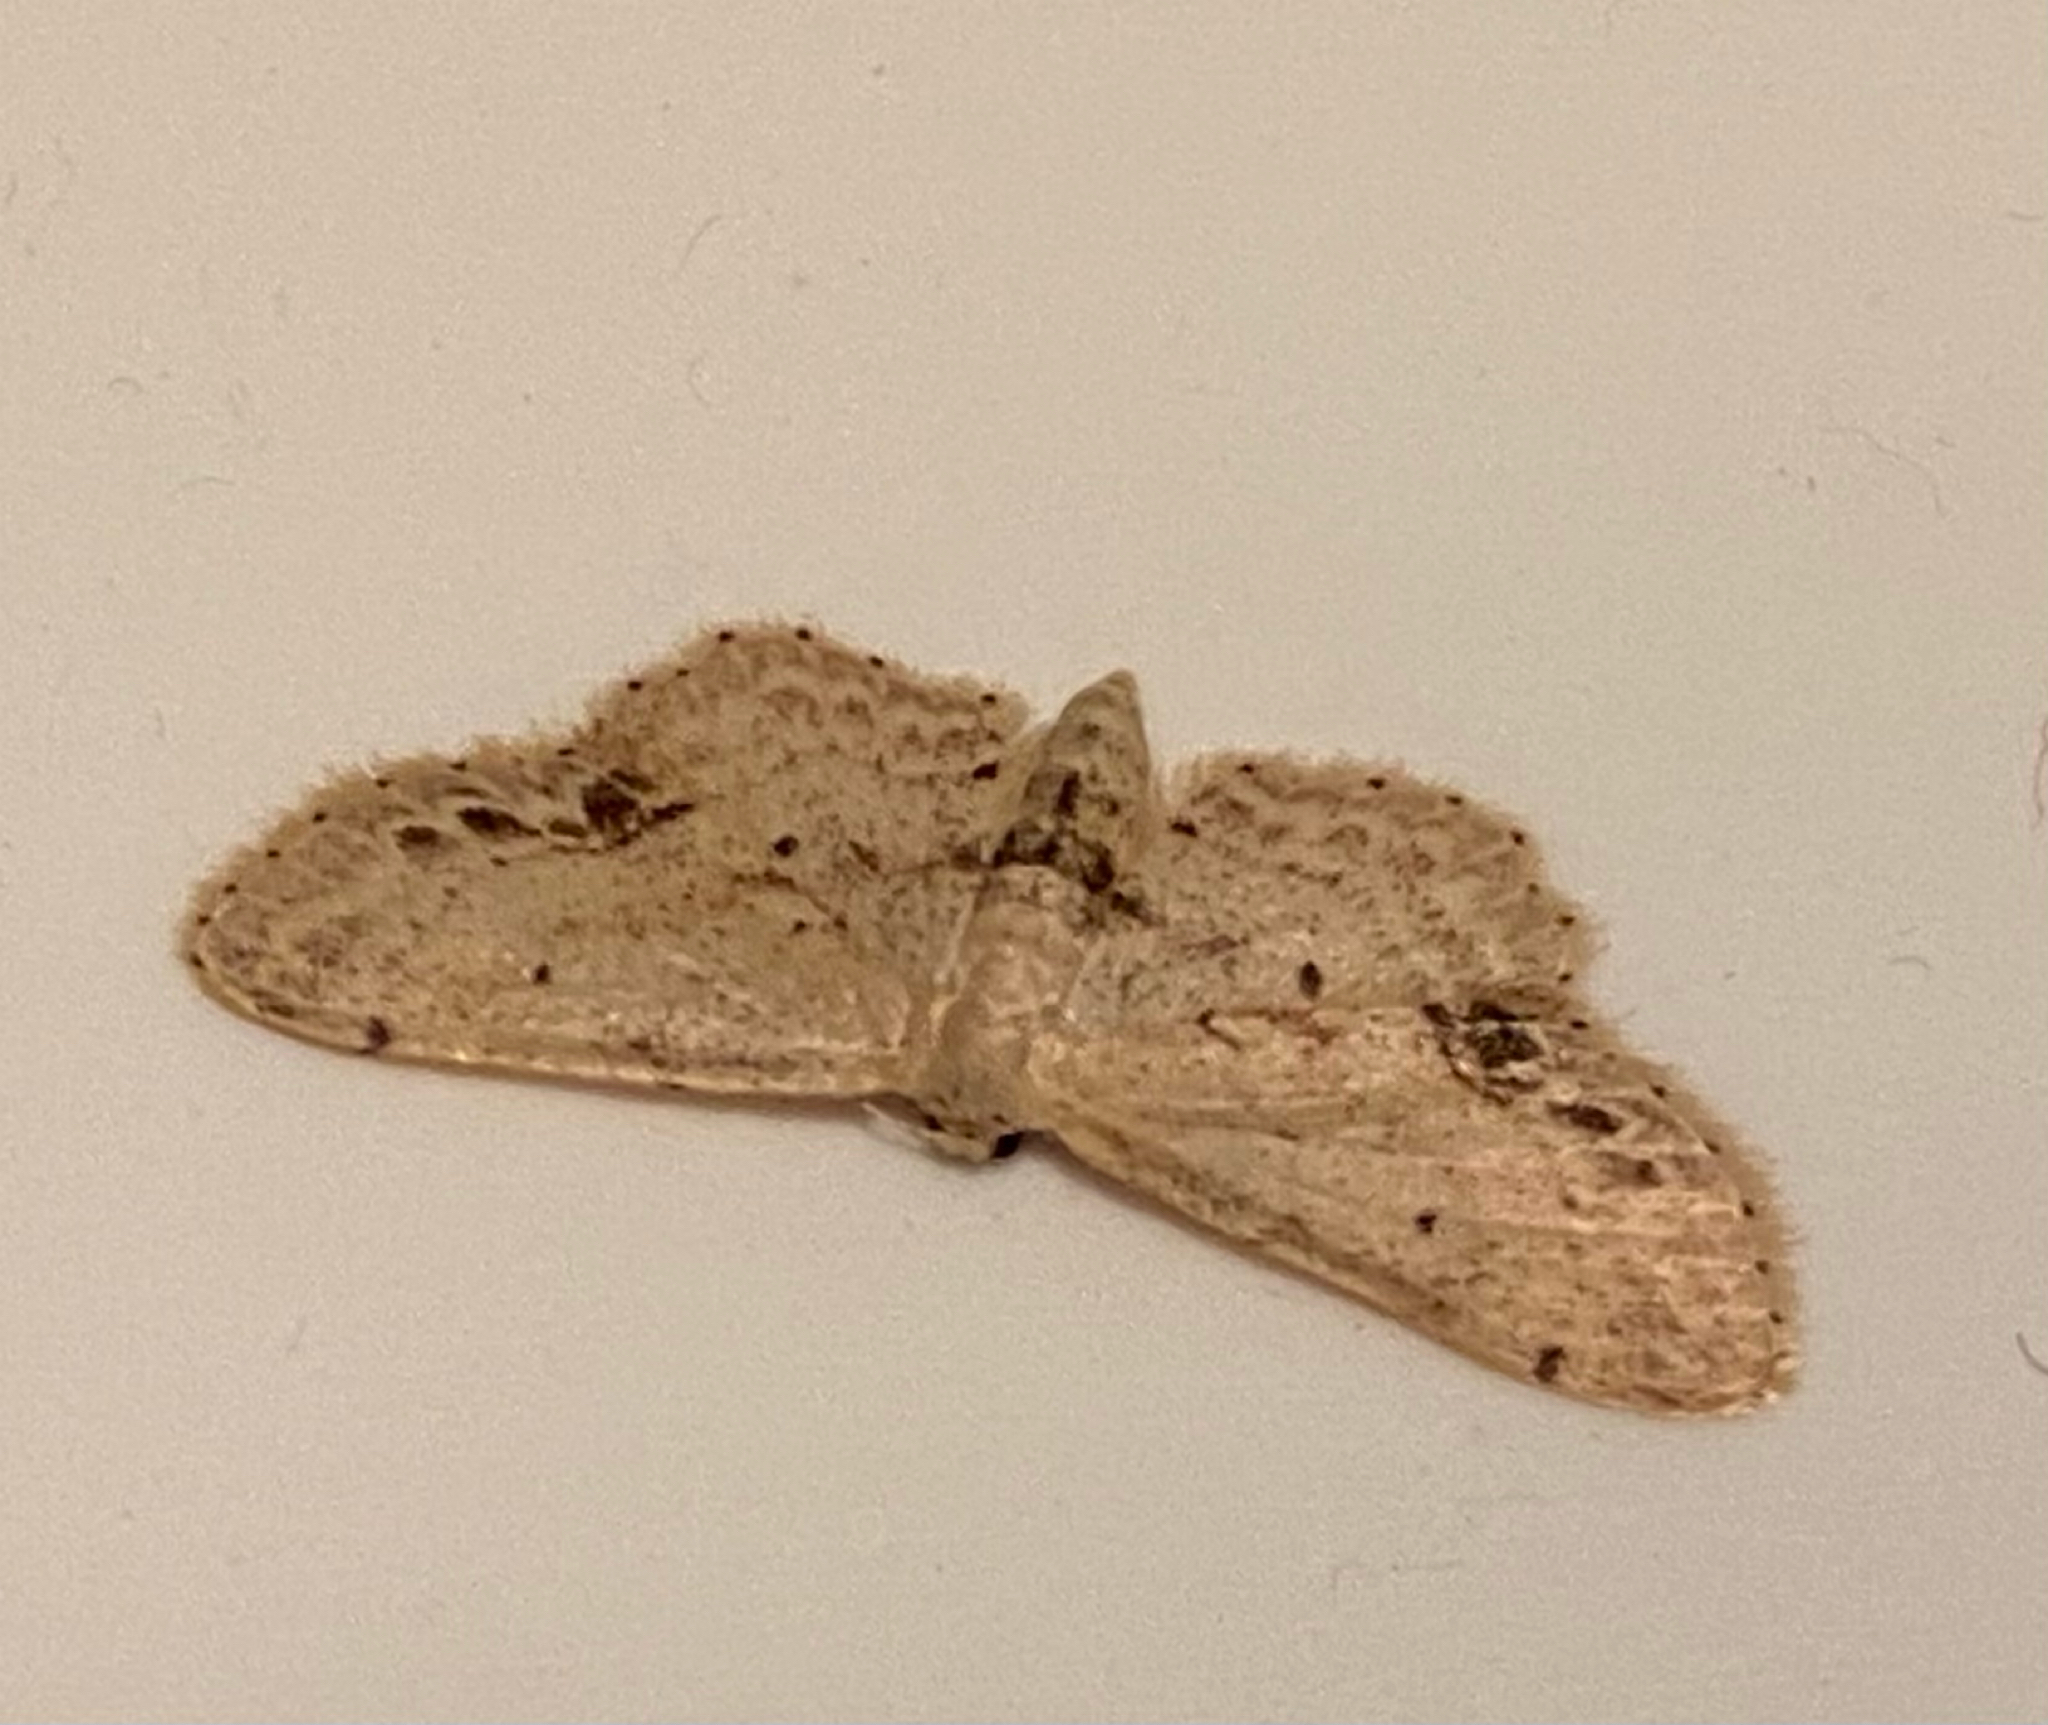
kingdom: Animalia
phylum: Arthropoda
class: Insecta
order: Lepidoptera
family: Geometridae
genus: Idaea
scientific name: Idaea dimidiata
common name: Single-dotted wave
